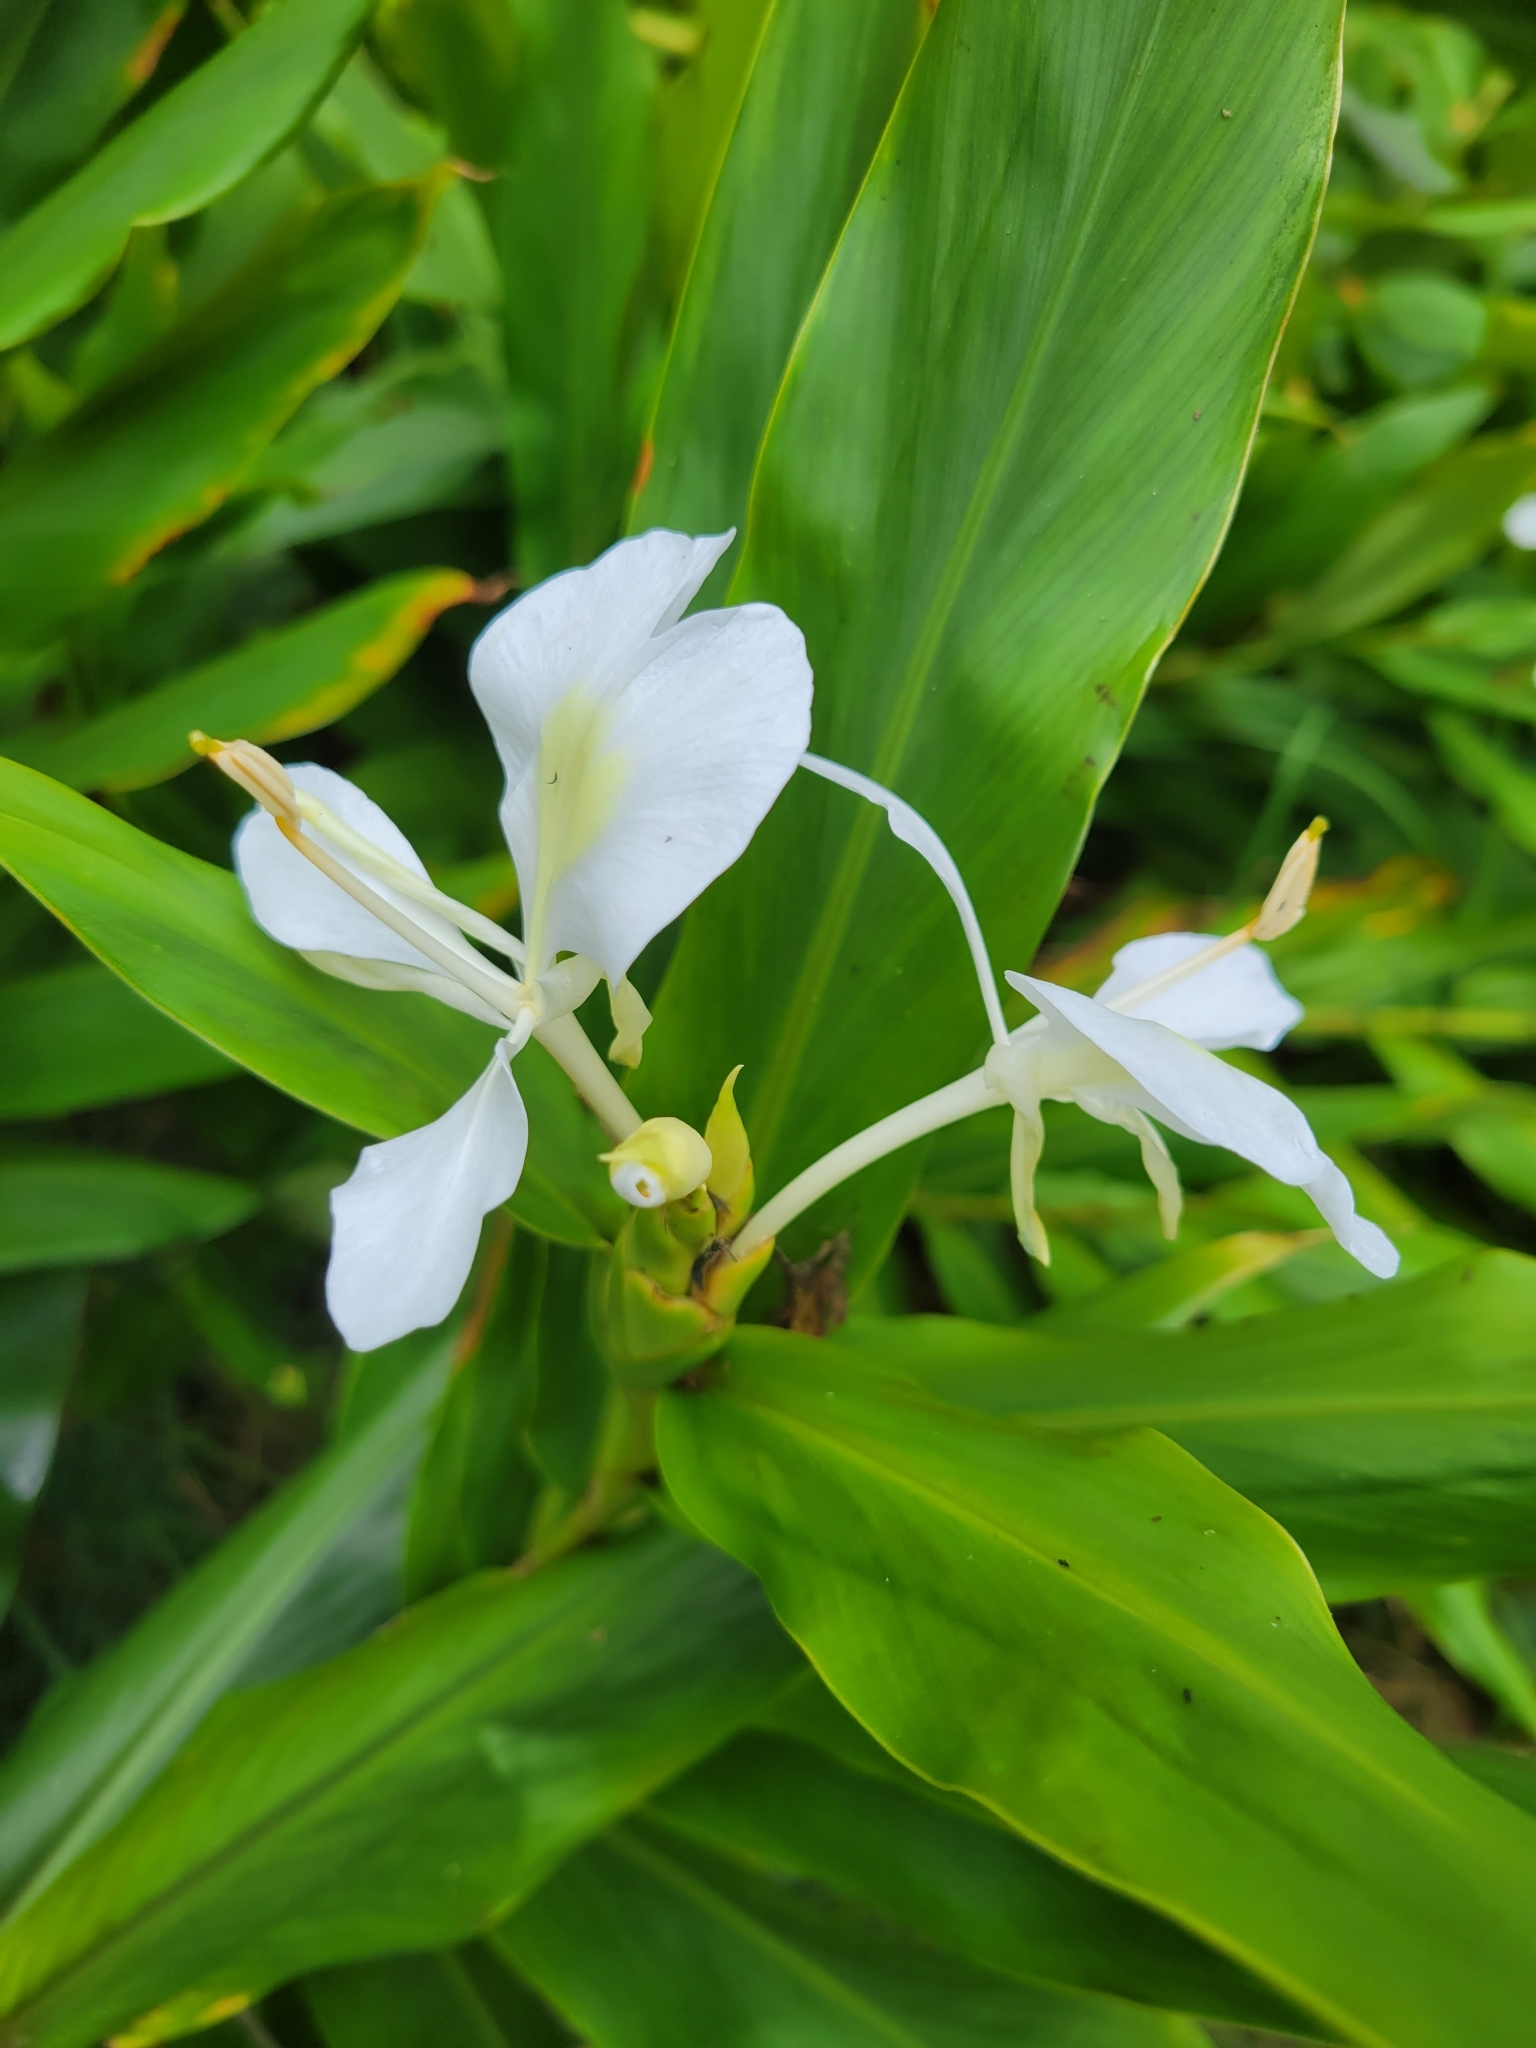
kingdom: Plantae
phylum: Tracheophyta
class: Liliopsida
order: Zingiberales
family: Zingiberaceae
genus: Hedychium
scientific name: Hedychium coronarium
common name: White garland-lily
